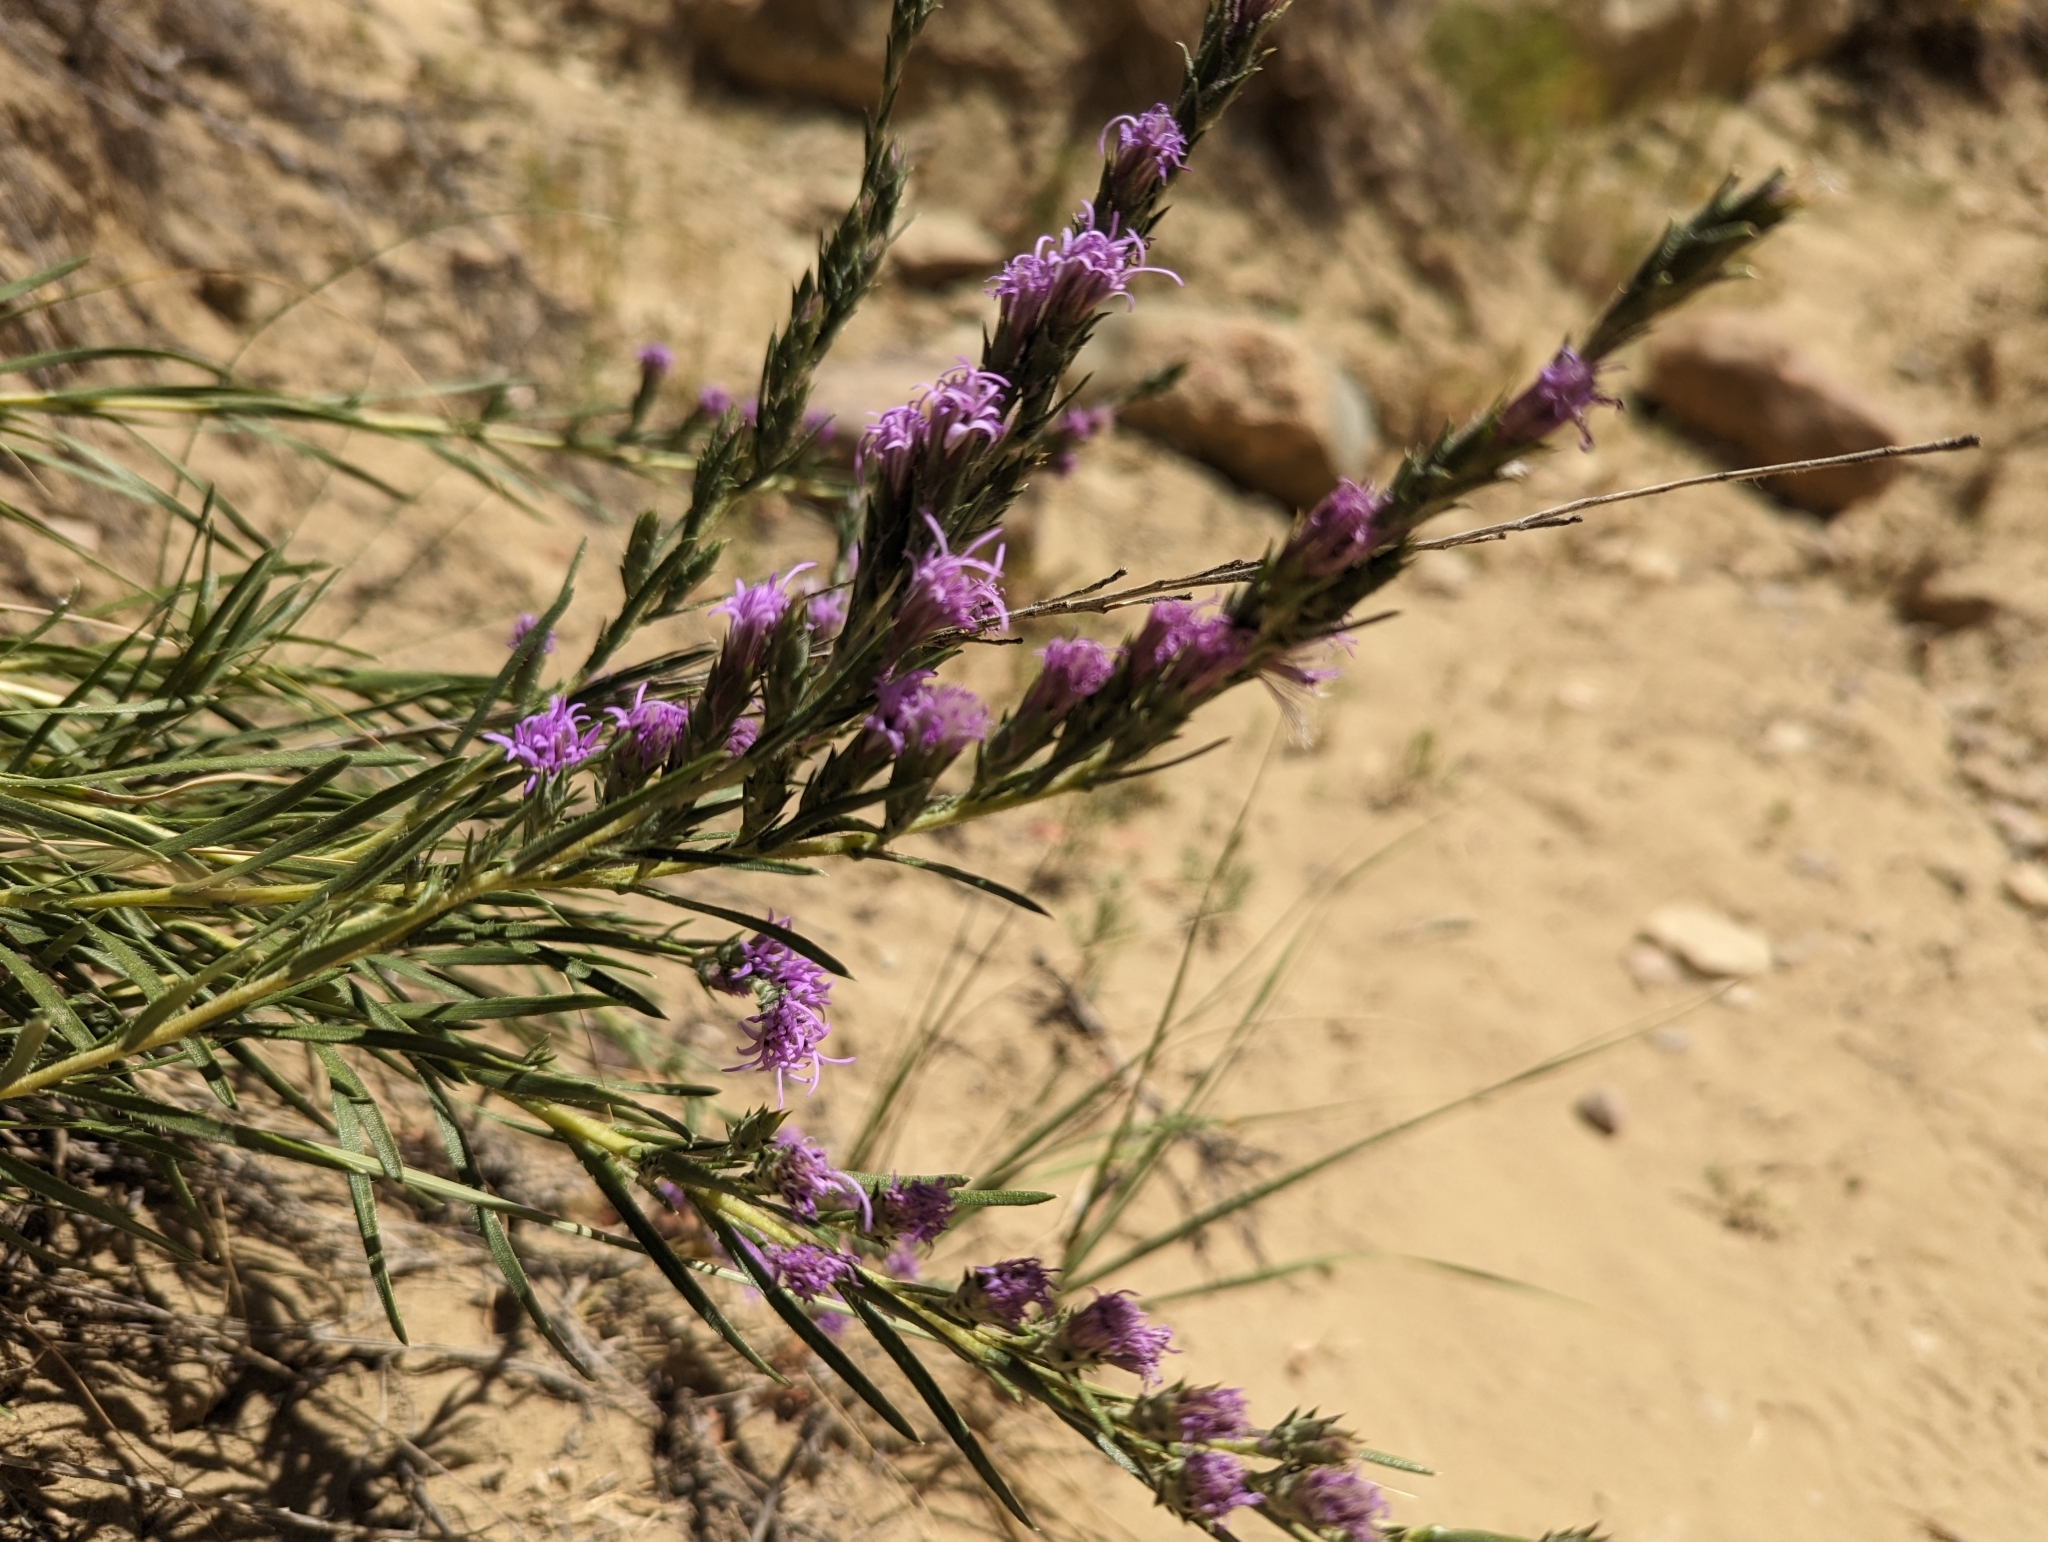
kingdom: Plantae
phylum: Tracheophyta
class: Magnoliopsida
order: Asterales
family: Asteraceae
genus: Liatris
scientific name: Liatris punctata
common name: Dotted gayfeather
